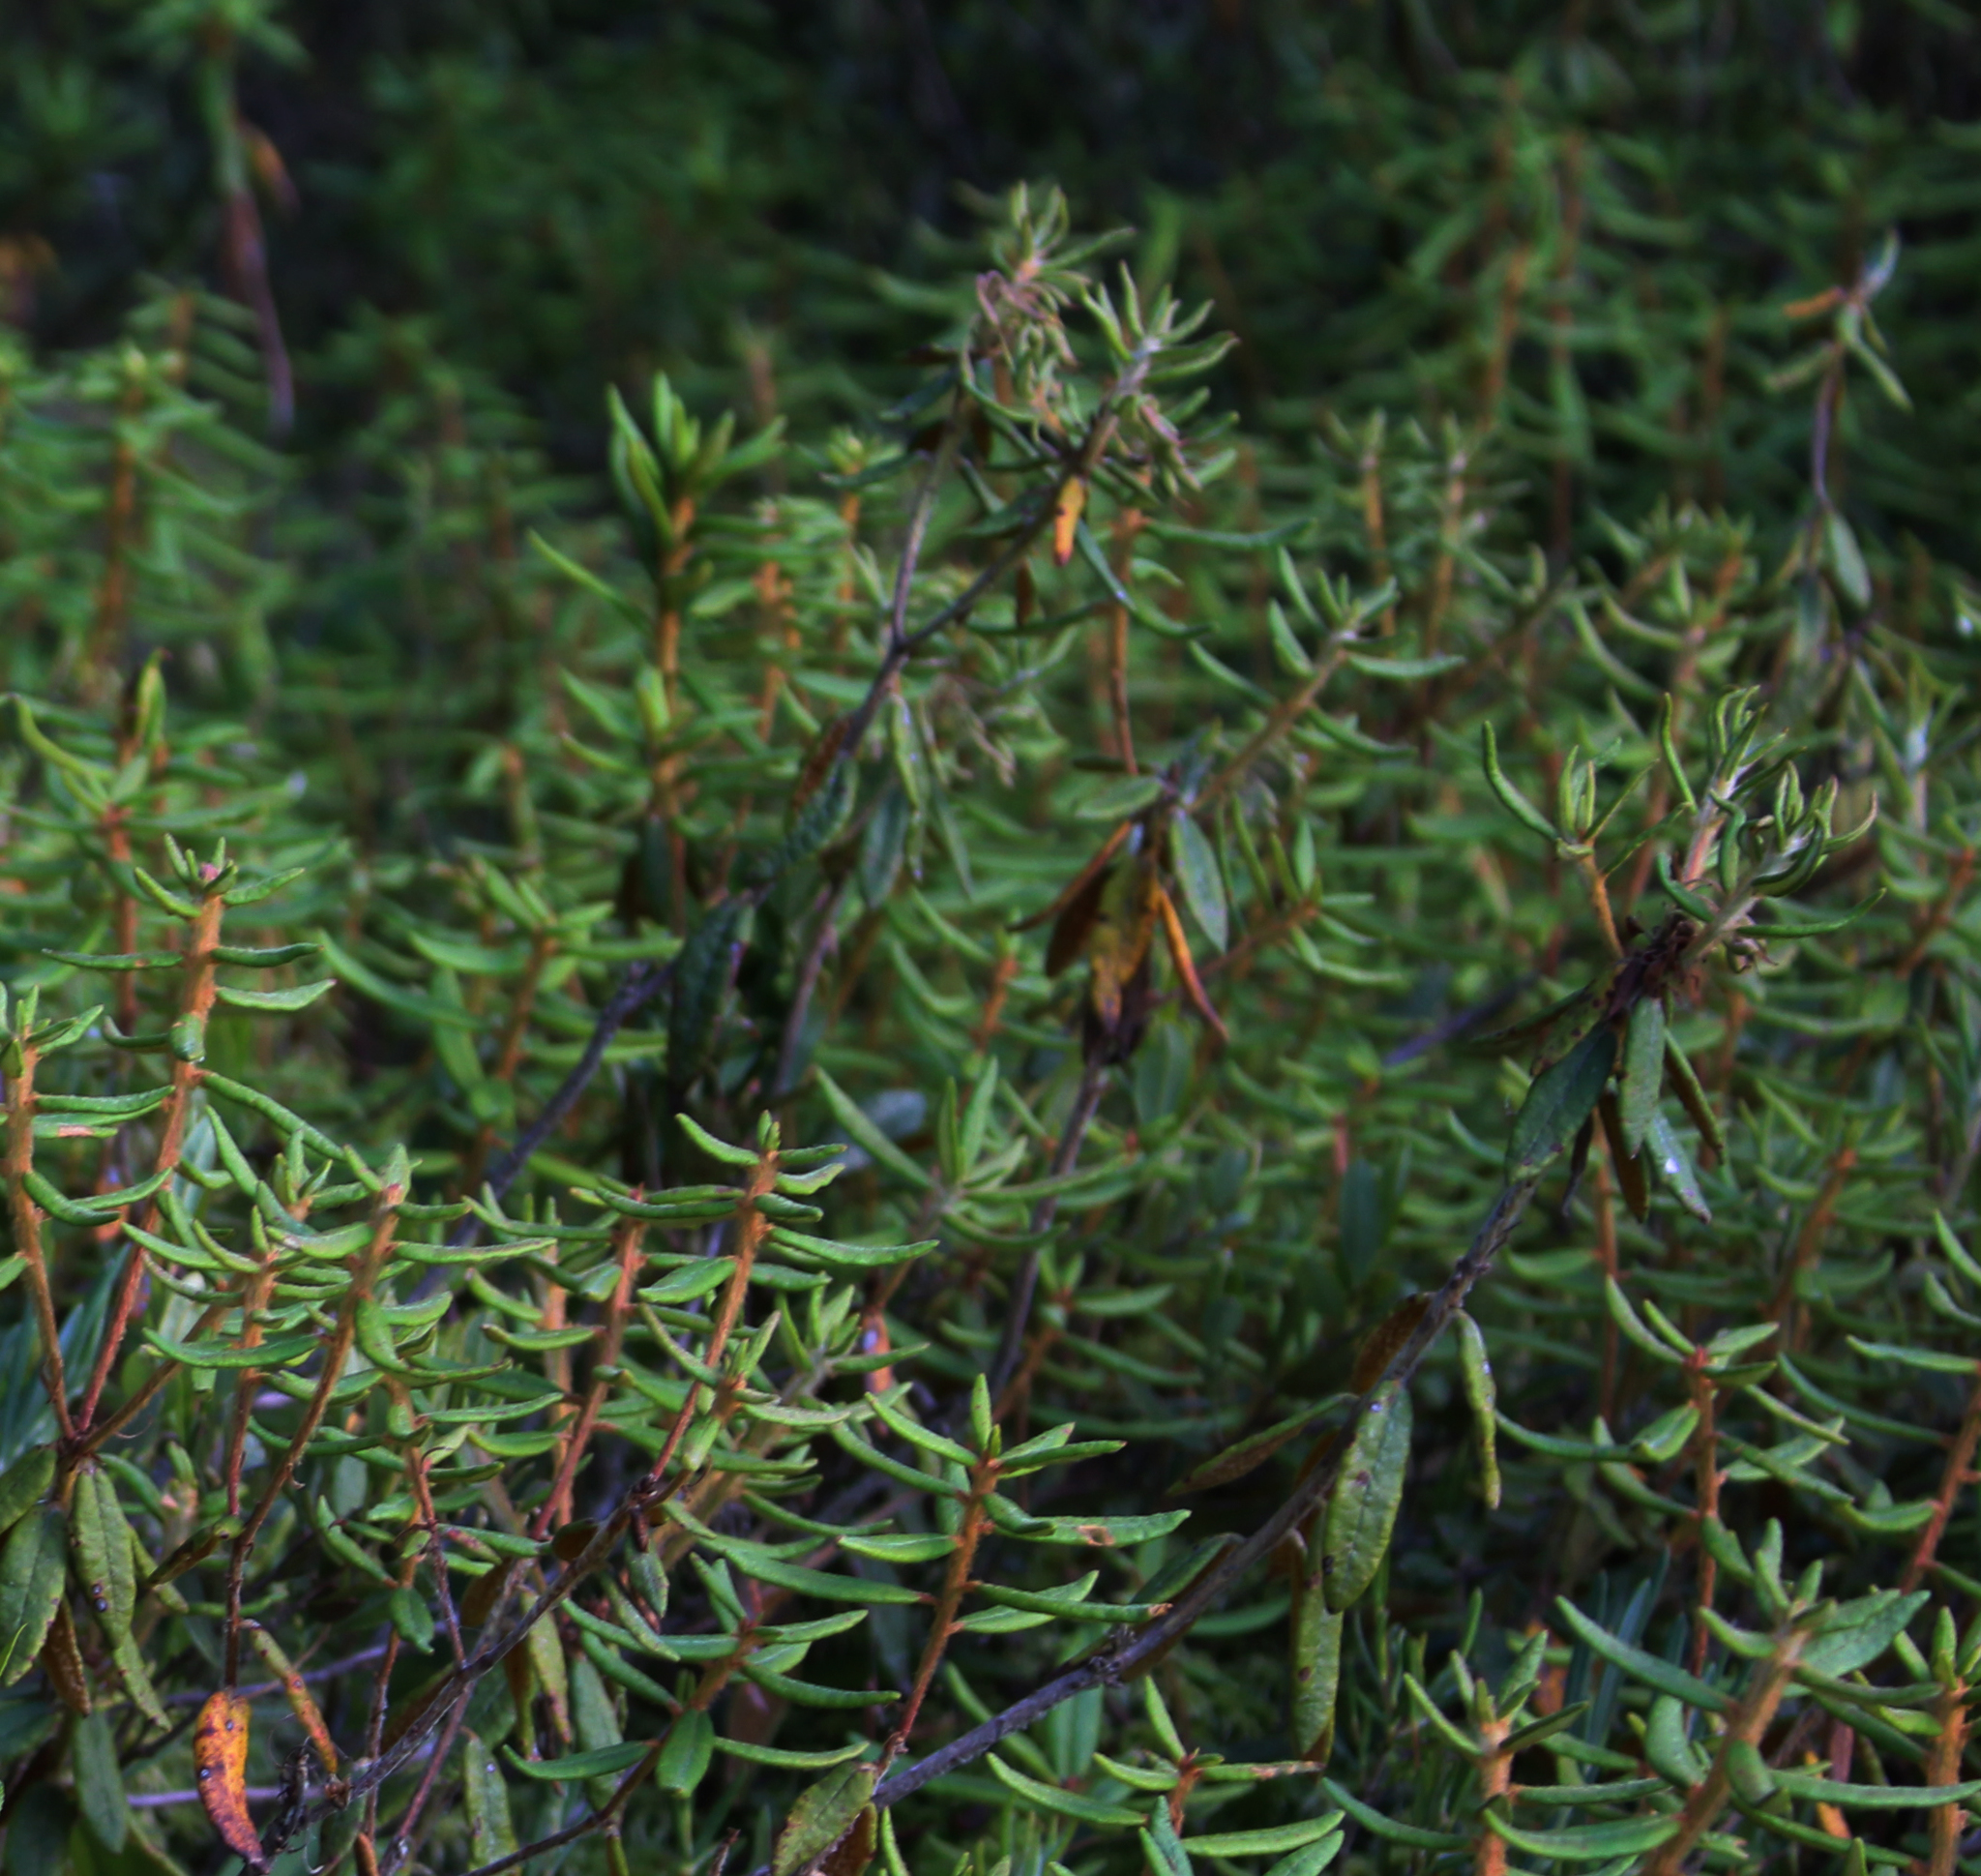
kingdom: Plantae
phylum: Tracheophyta
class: Magnoliopsida
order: Ericales
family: Ericaceae
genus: Rhododendron
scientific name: Rhododendron groenlandicum
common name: Bog labrador tea
